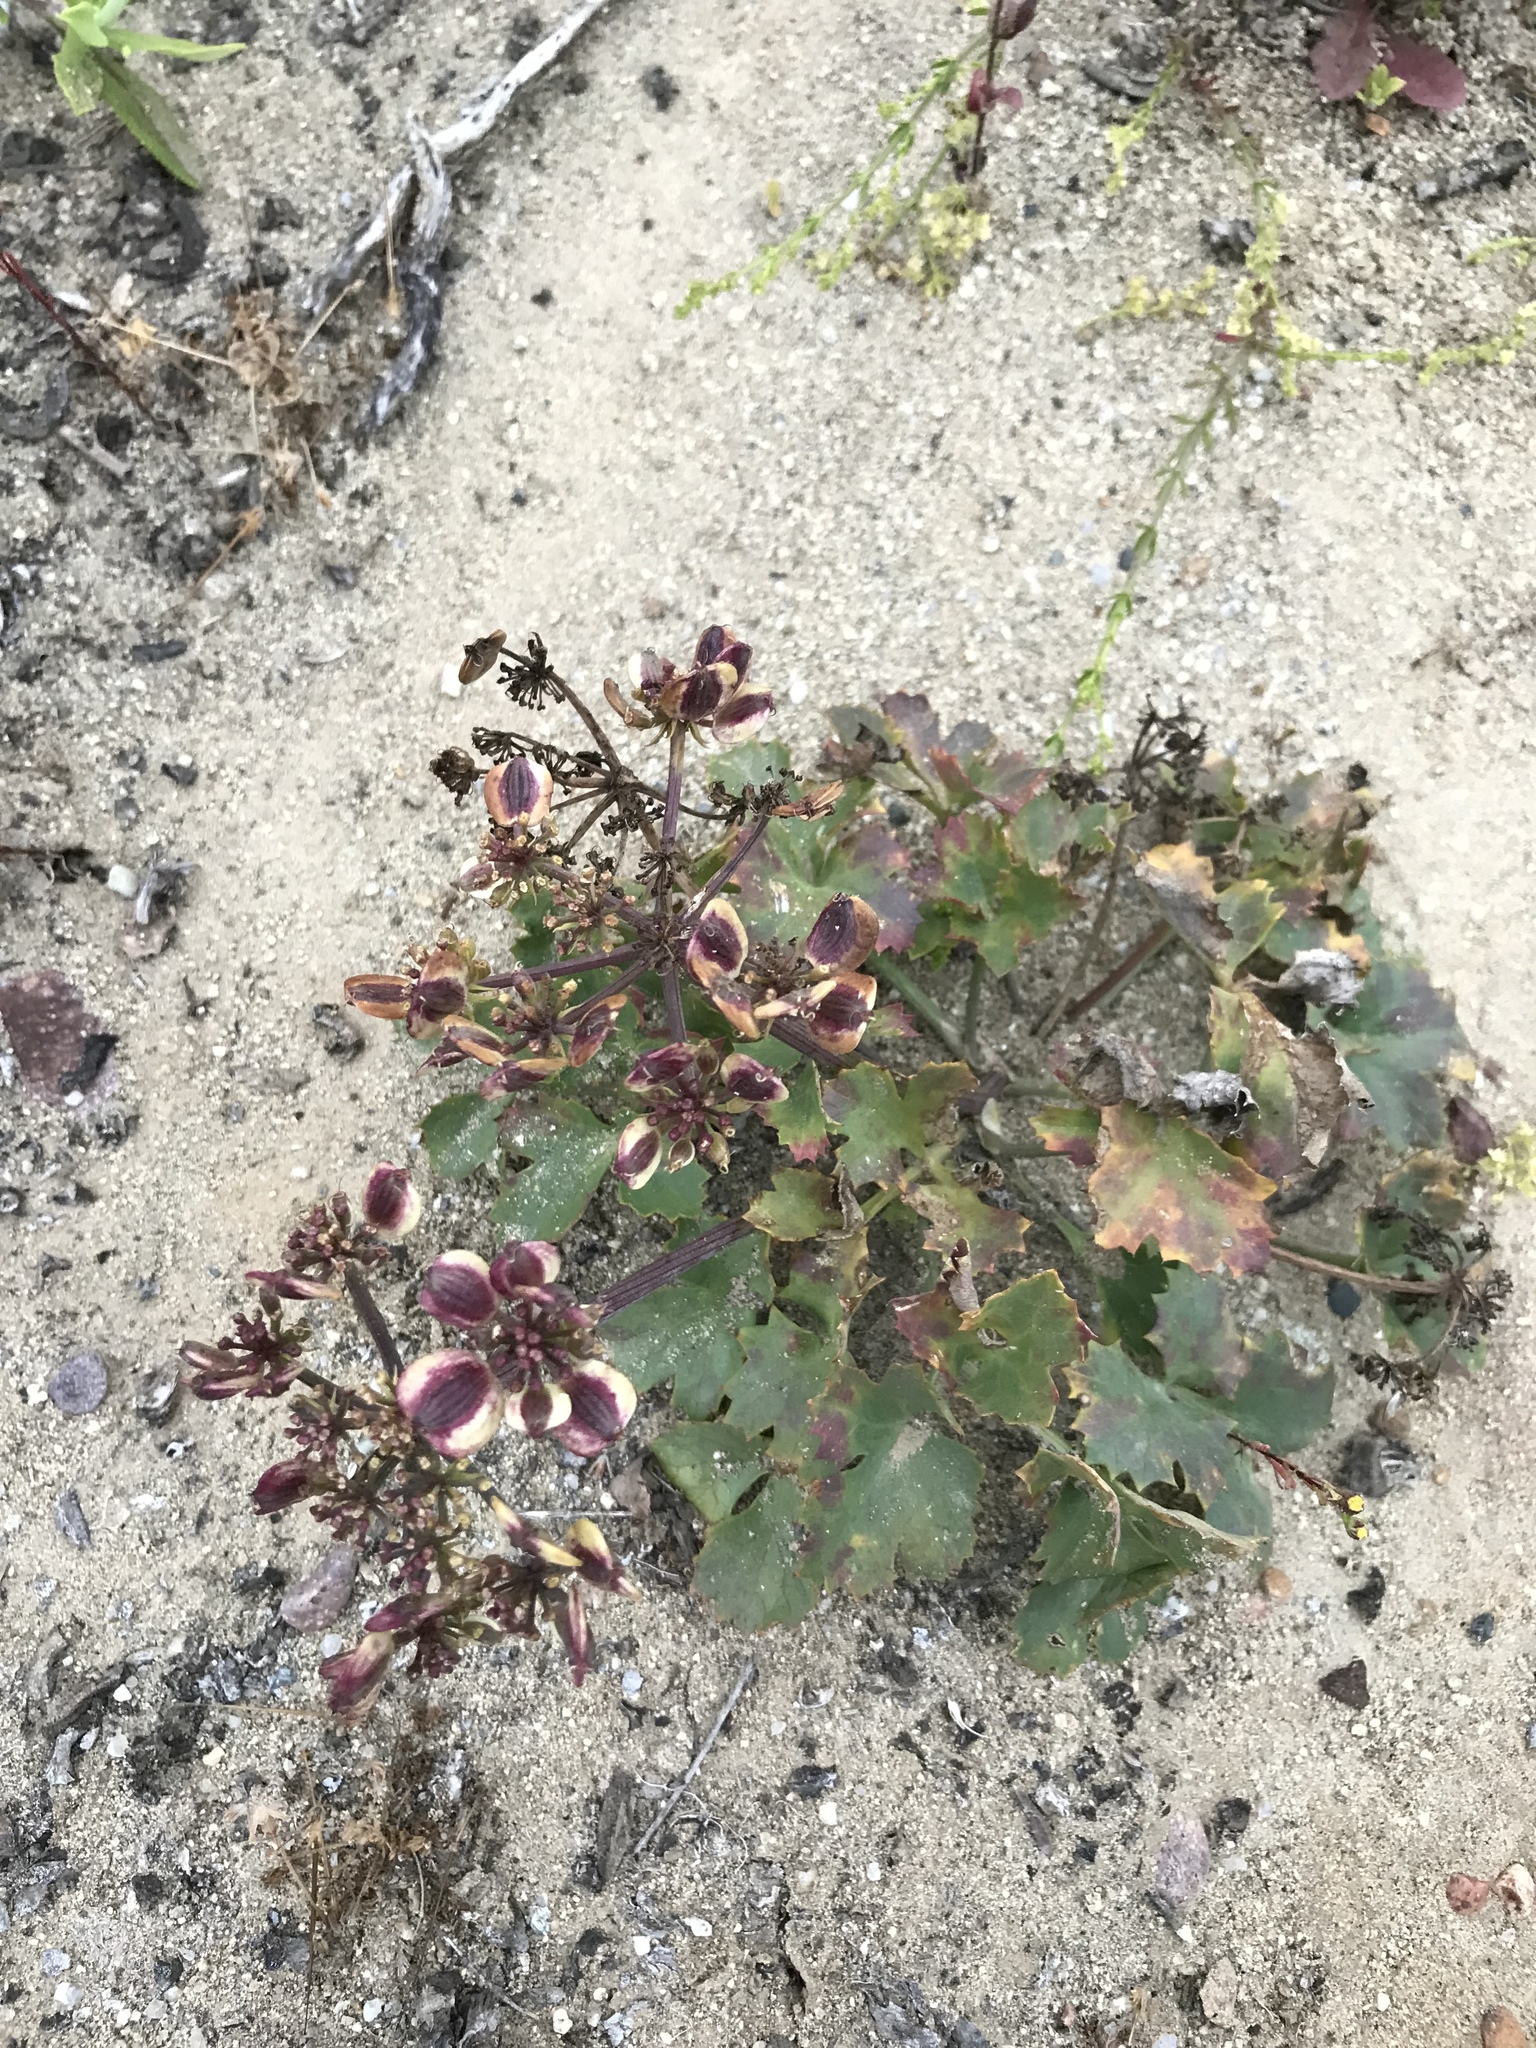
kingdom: Plantae
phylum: Tracheophyta
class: Magnoliopsida
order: Apiales
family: Apiaceae
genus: Lomatium
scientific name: Lomatium lucidum
